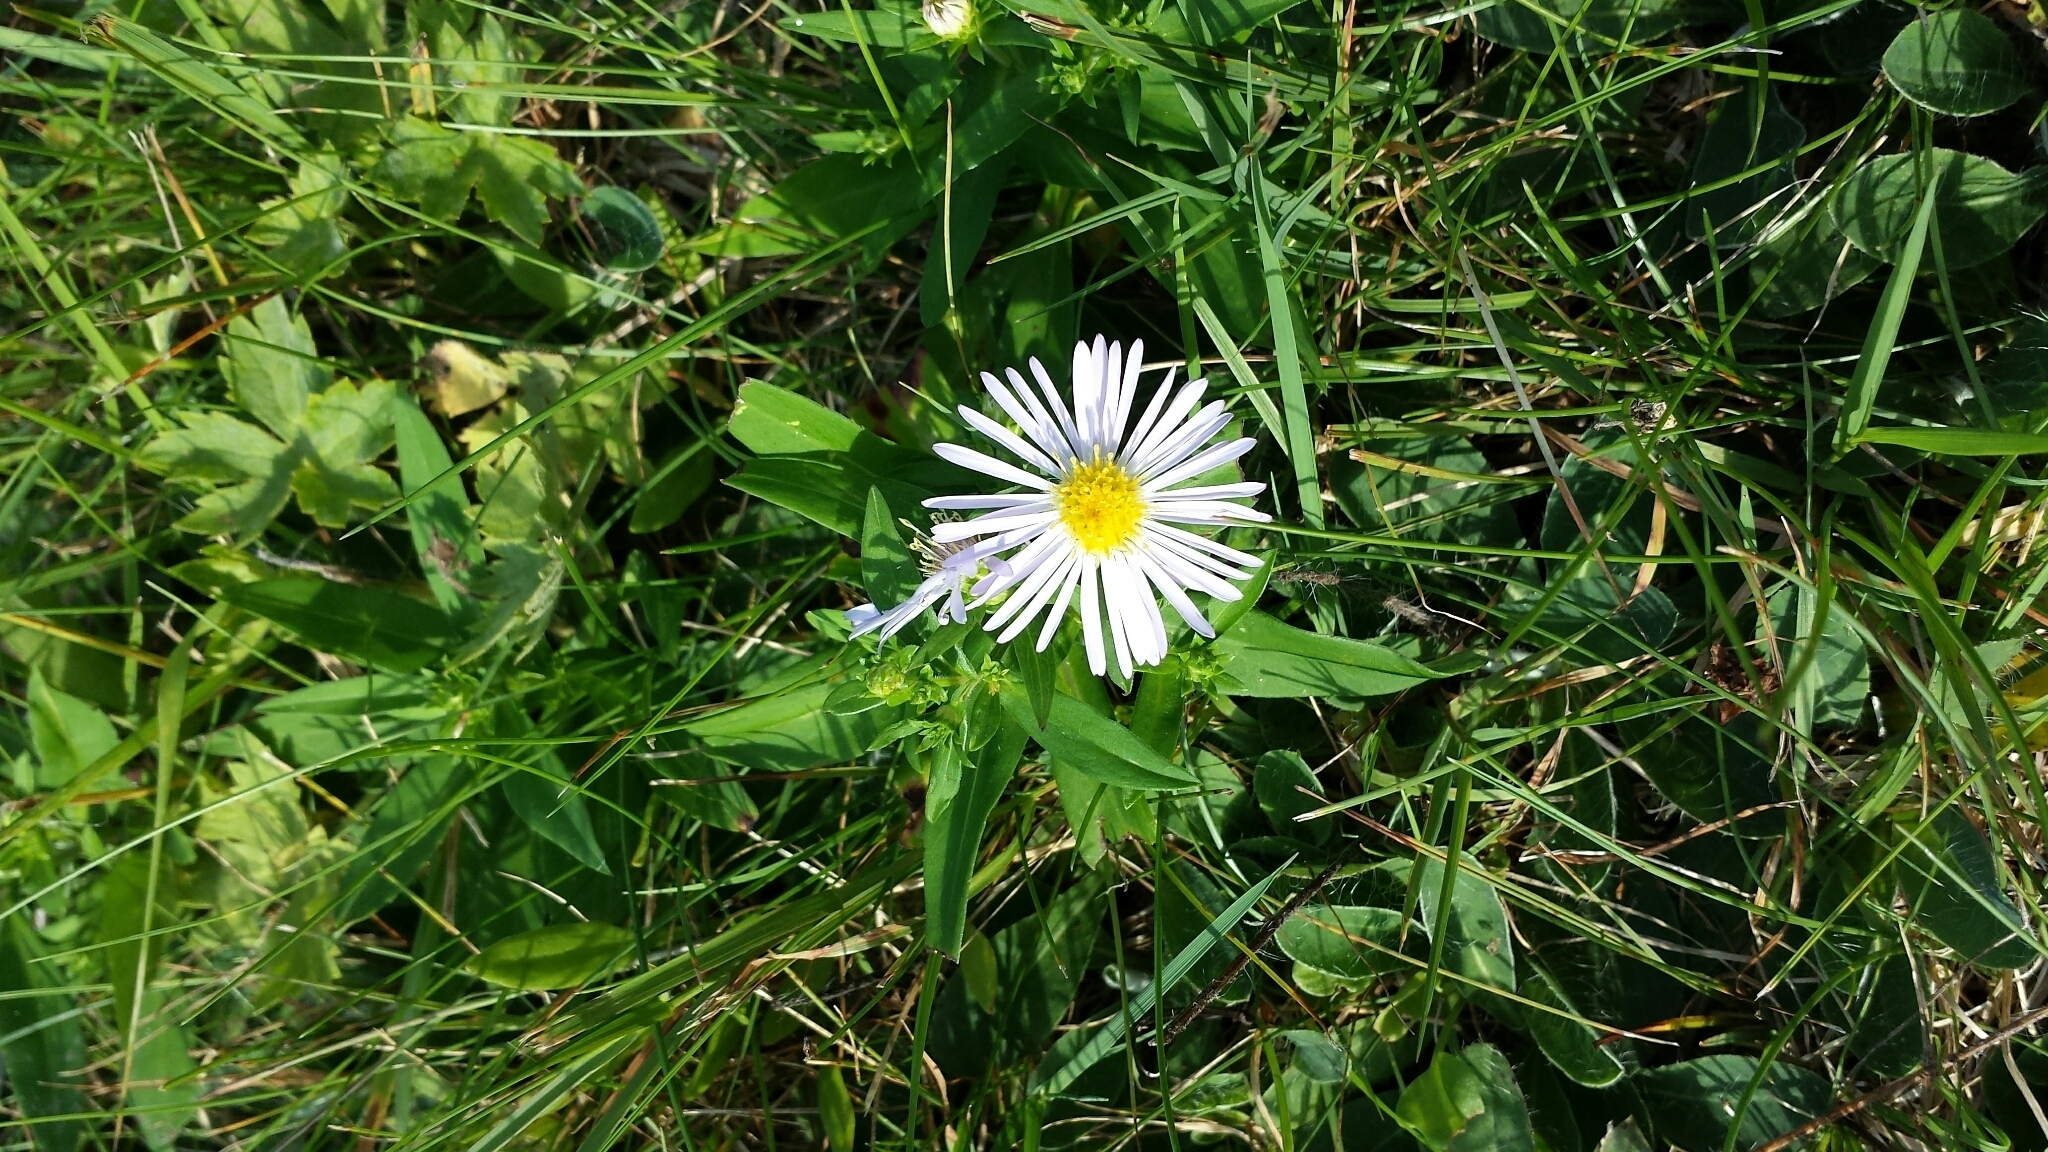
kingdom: Plantae
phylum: Tracheophyta
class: Magnoliopsida
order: Asterales
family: Asteraceae
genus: Symphyotrichum
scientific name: Symphyotrichum novi-belgii
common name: Michaelmas daisy
